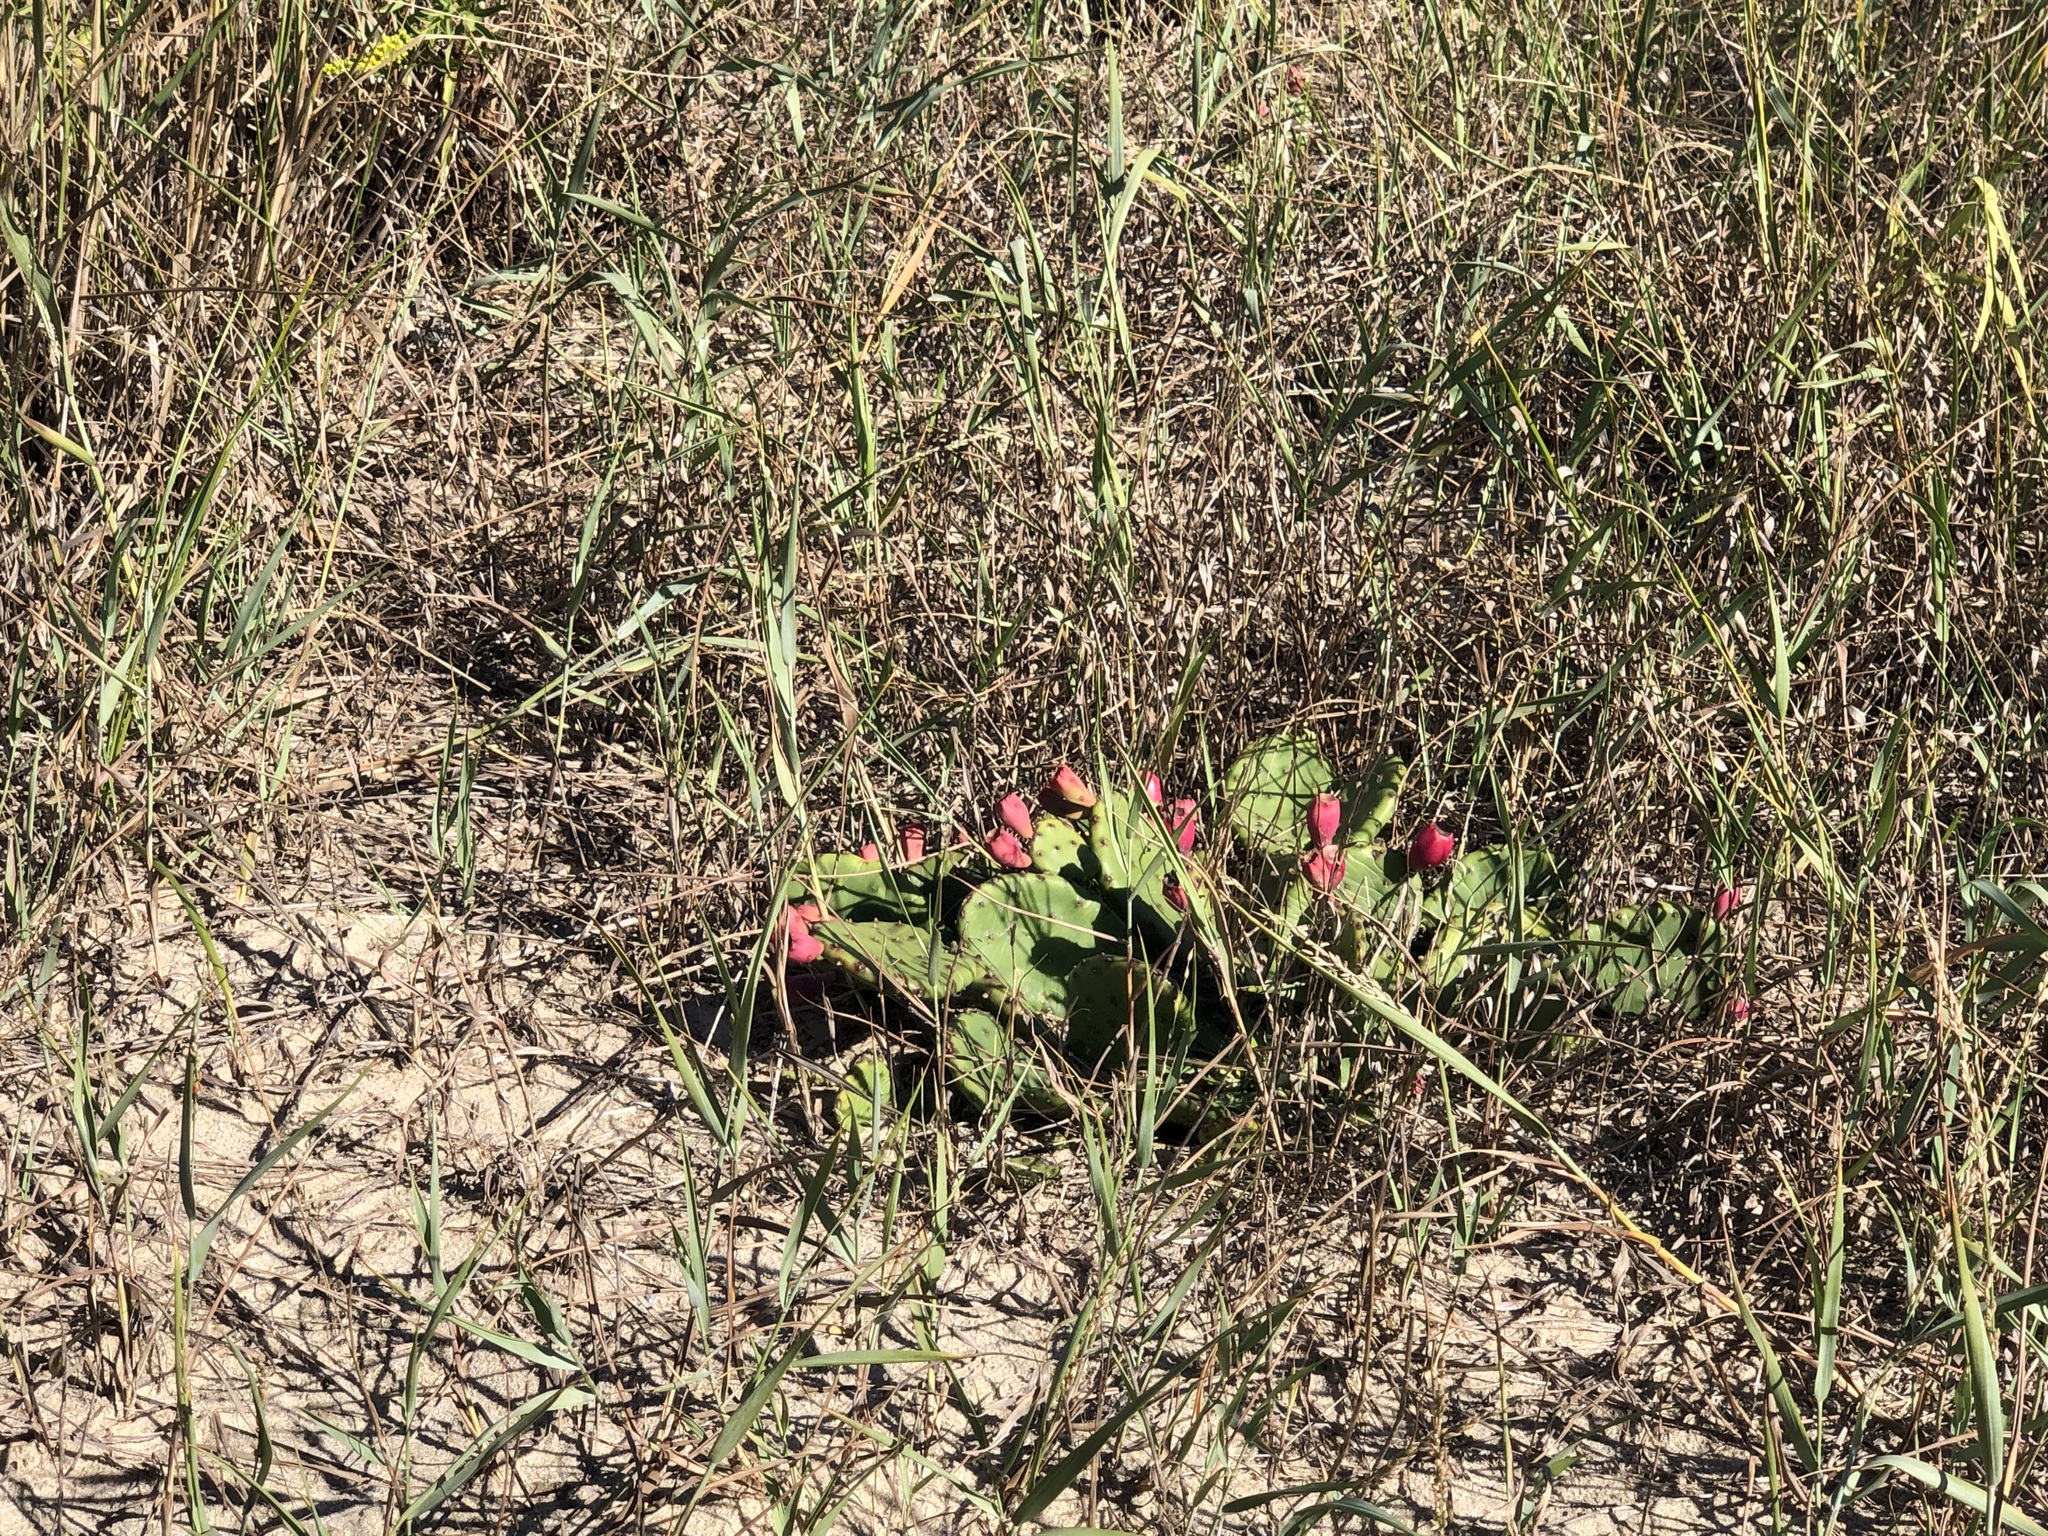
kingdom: Plantae
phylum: Tracheophyta
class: Magnoliopsida
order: Caryophyllales
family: Cactaceae
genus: Opuntia
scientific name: Opuntia humifusa
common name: Eastern prickly-pear
